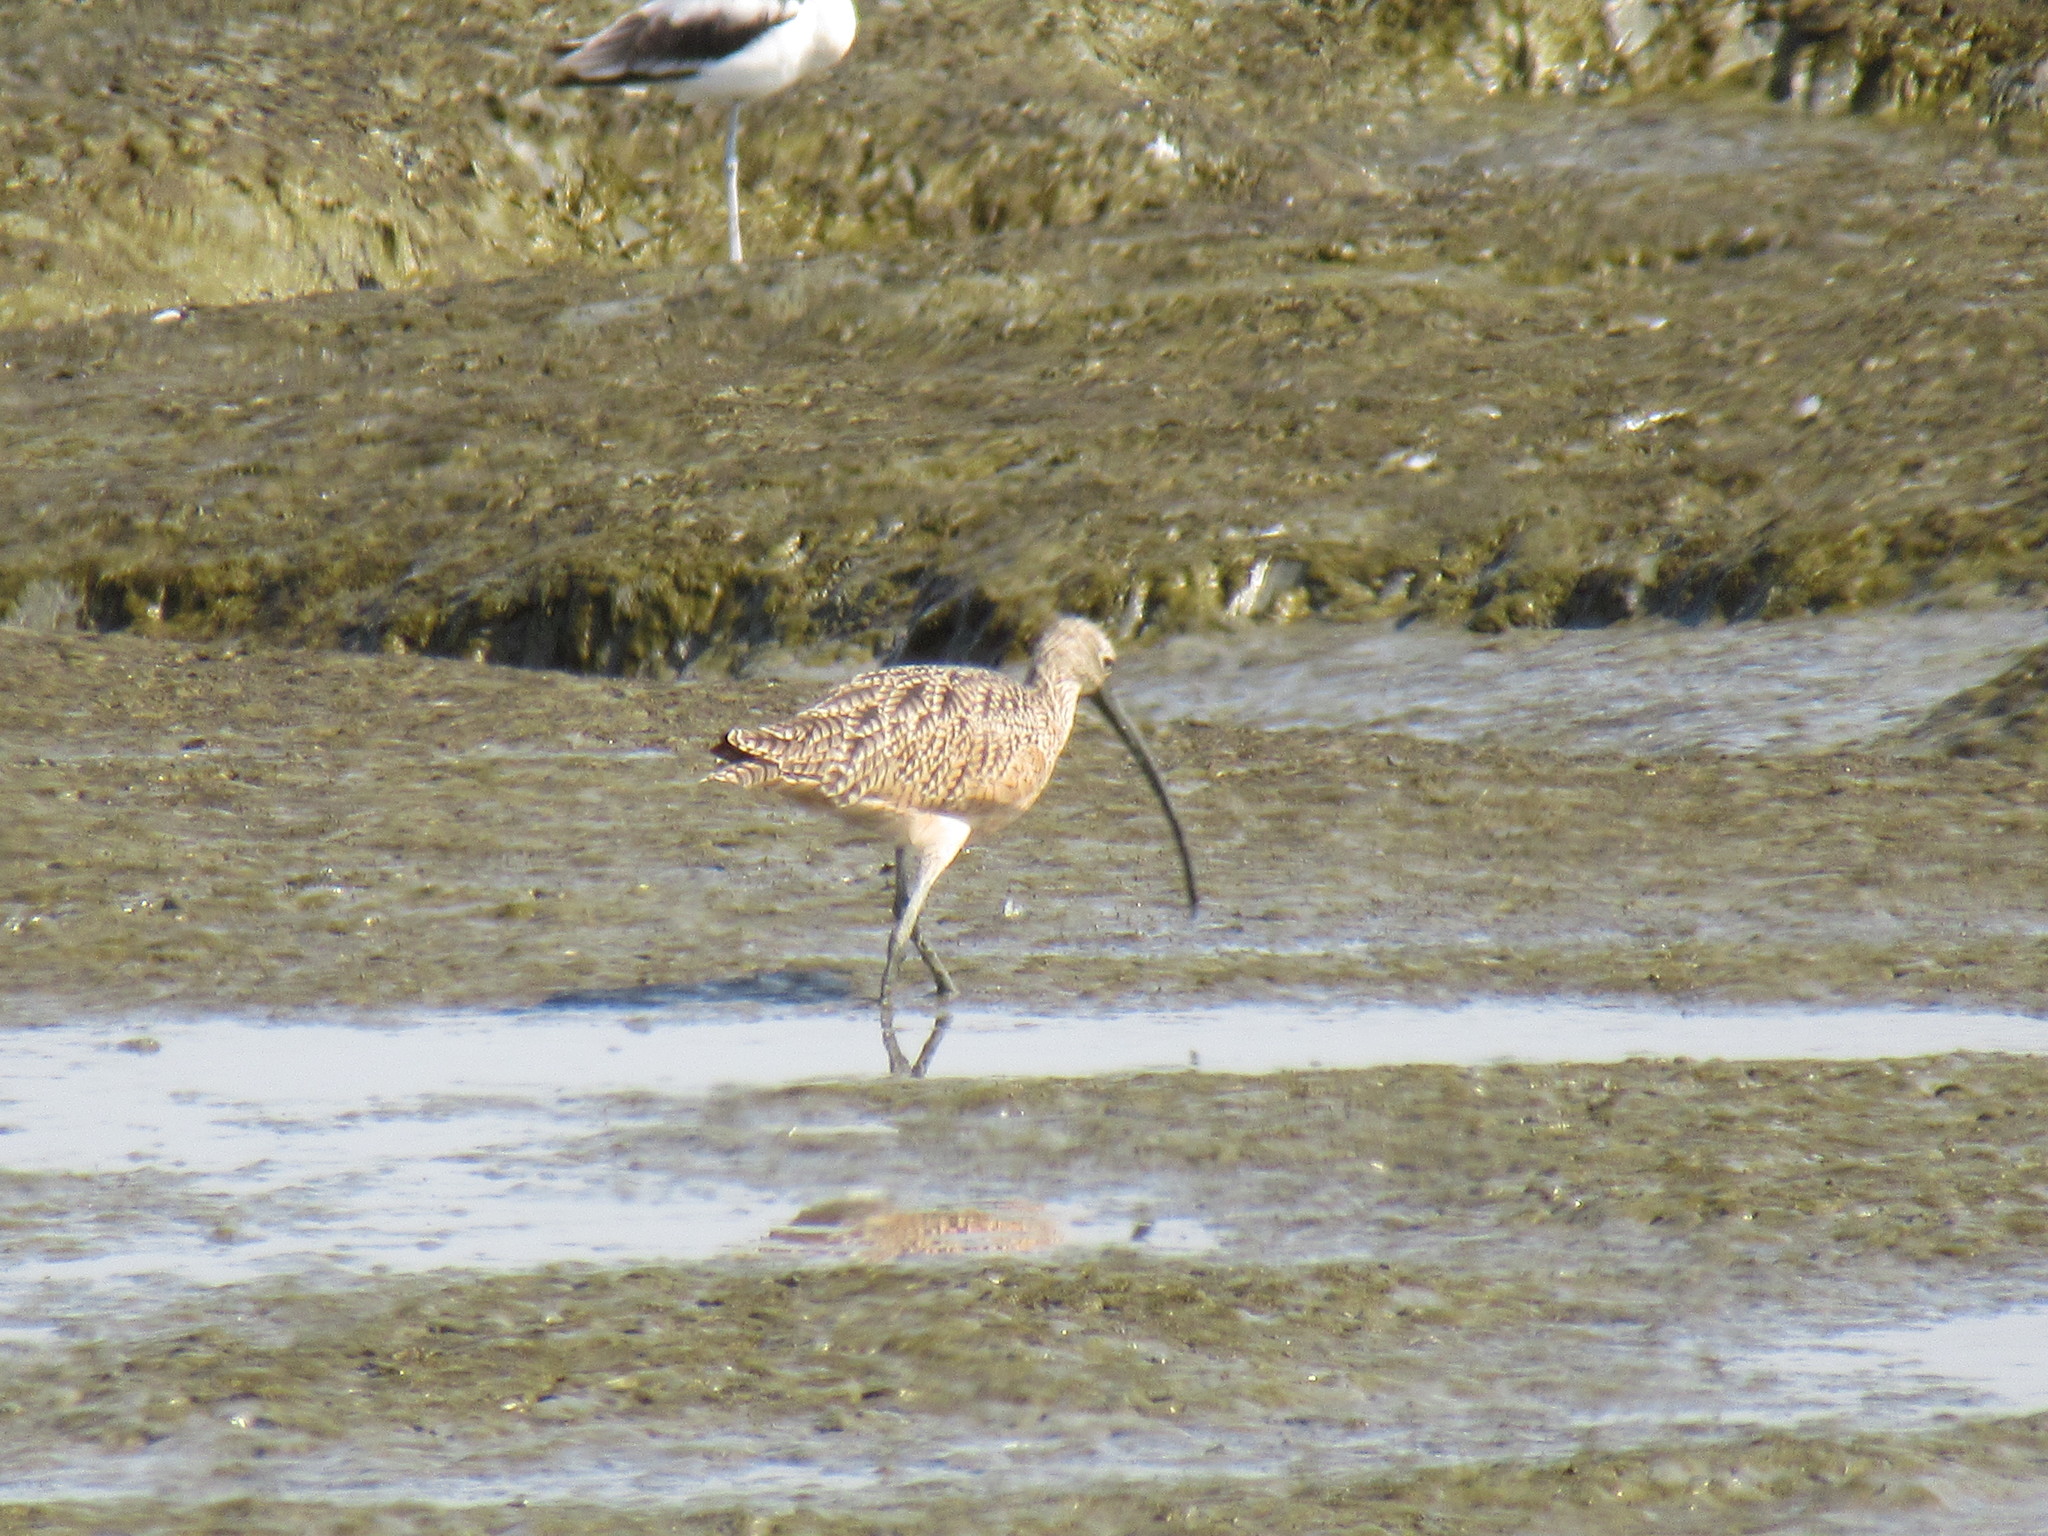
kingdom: Animalia
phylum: Chordata
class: Aves
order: Charadriiformes
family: Scolopacidae
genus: Numenius
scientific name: Numenius americanus
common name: Long-billed curlew
